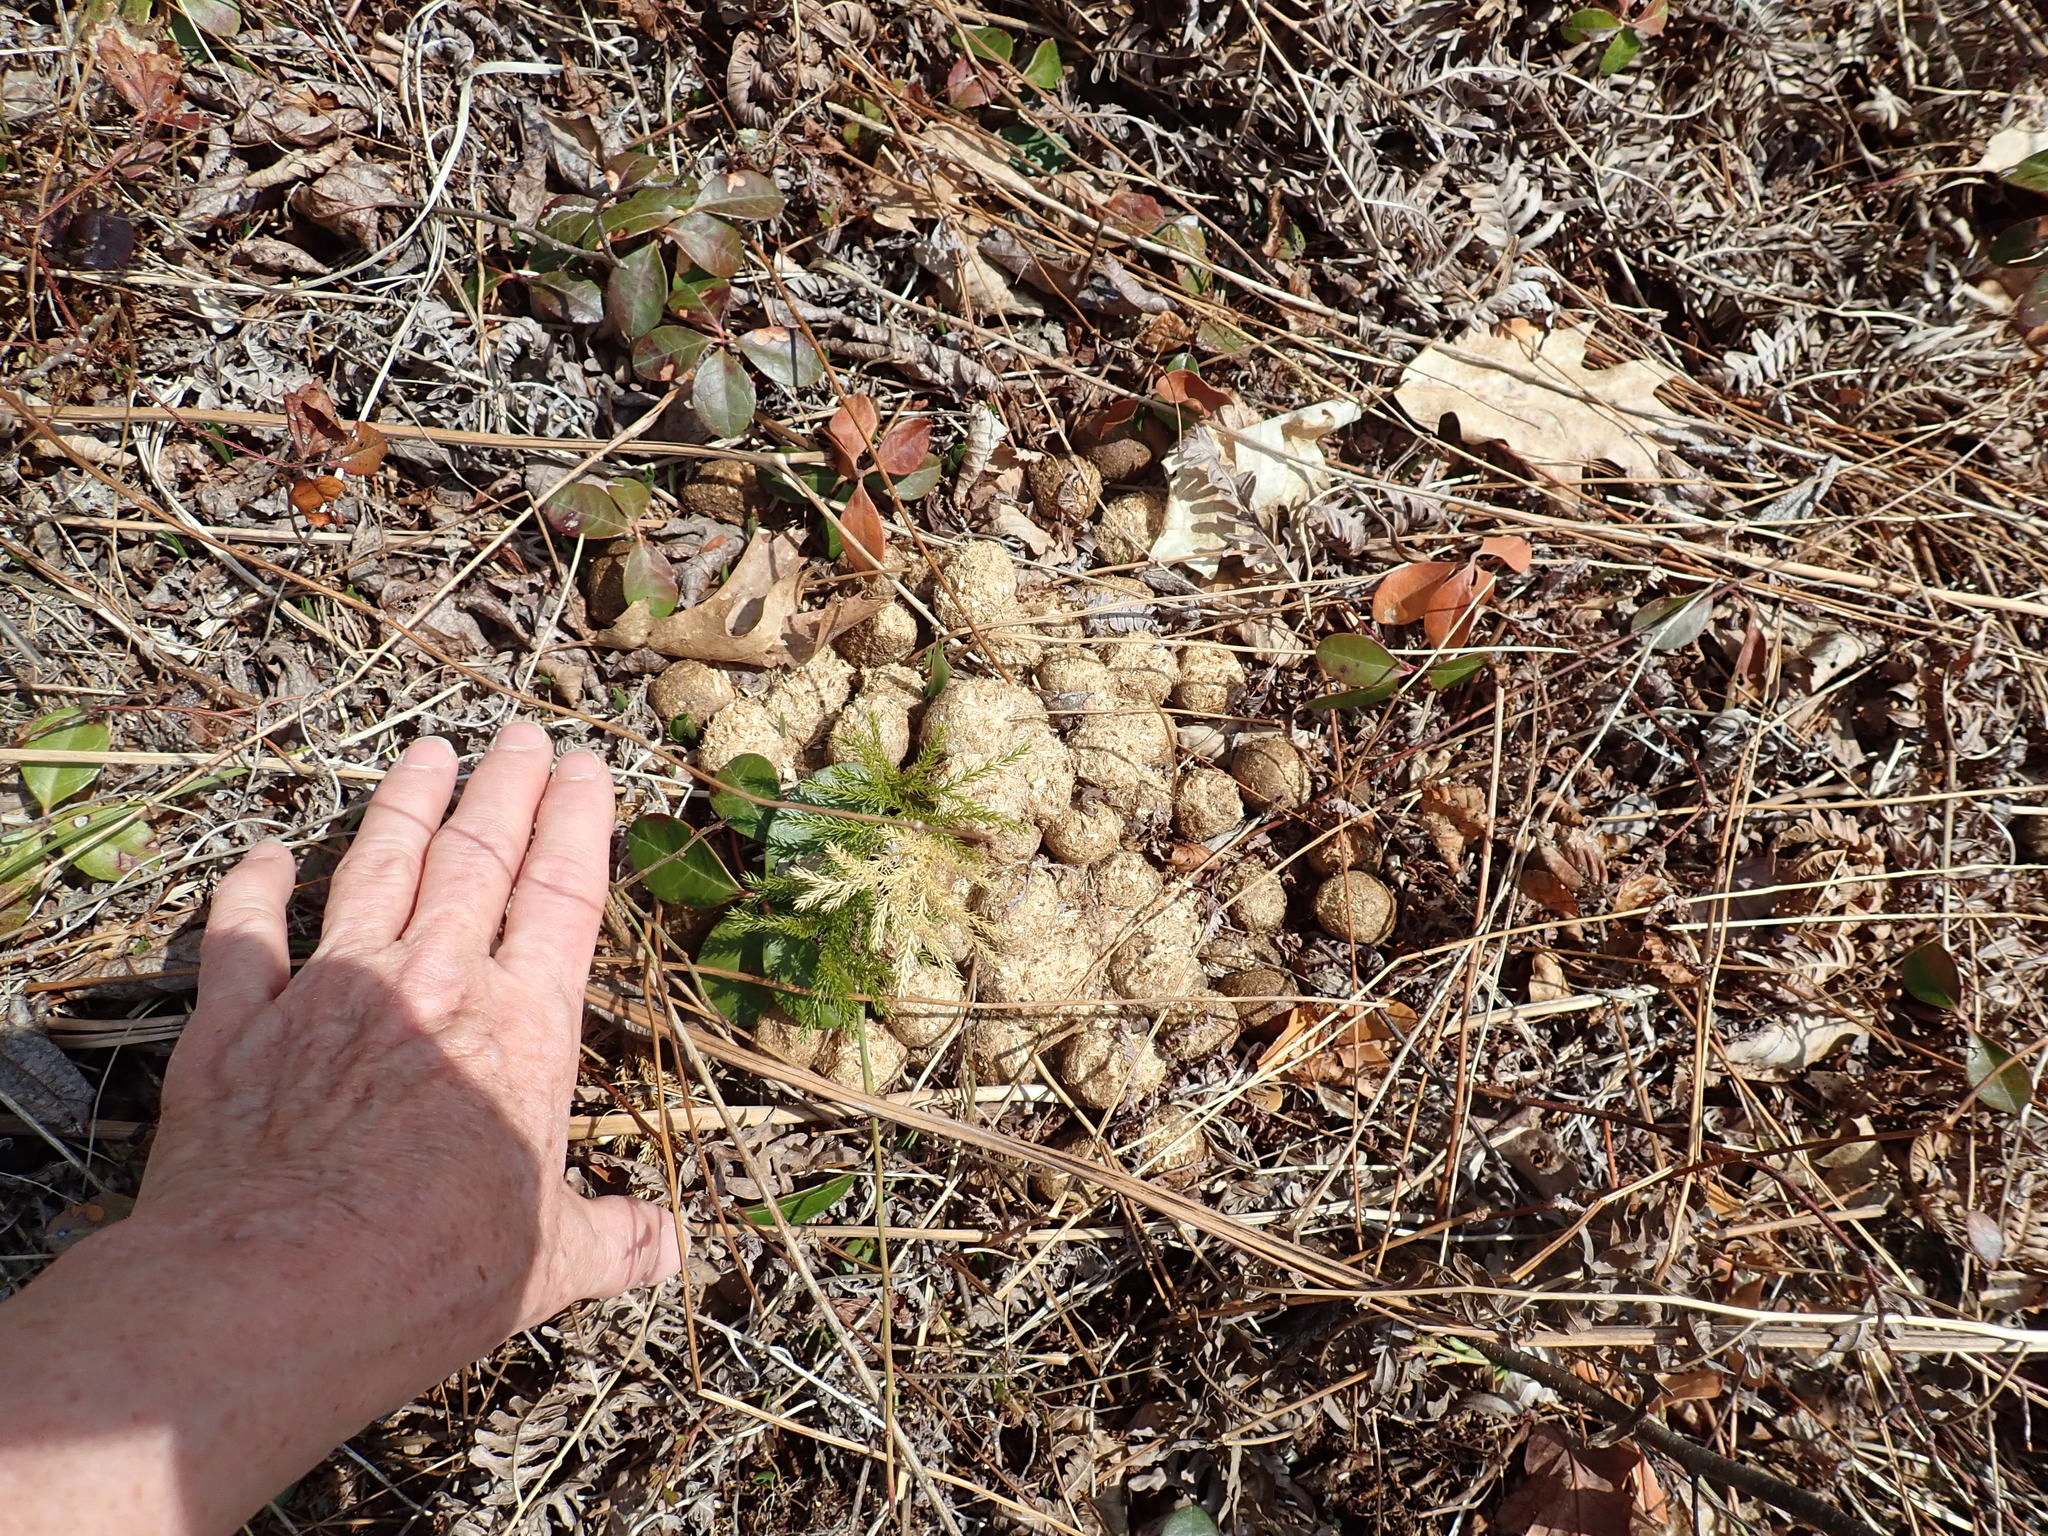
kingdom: Animalia
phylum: Chordata
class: Mammalia
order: Artiodactyla
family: Cervidae
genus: Alces
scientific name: Alces alces
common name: Moose
